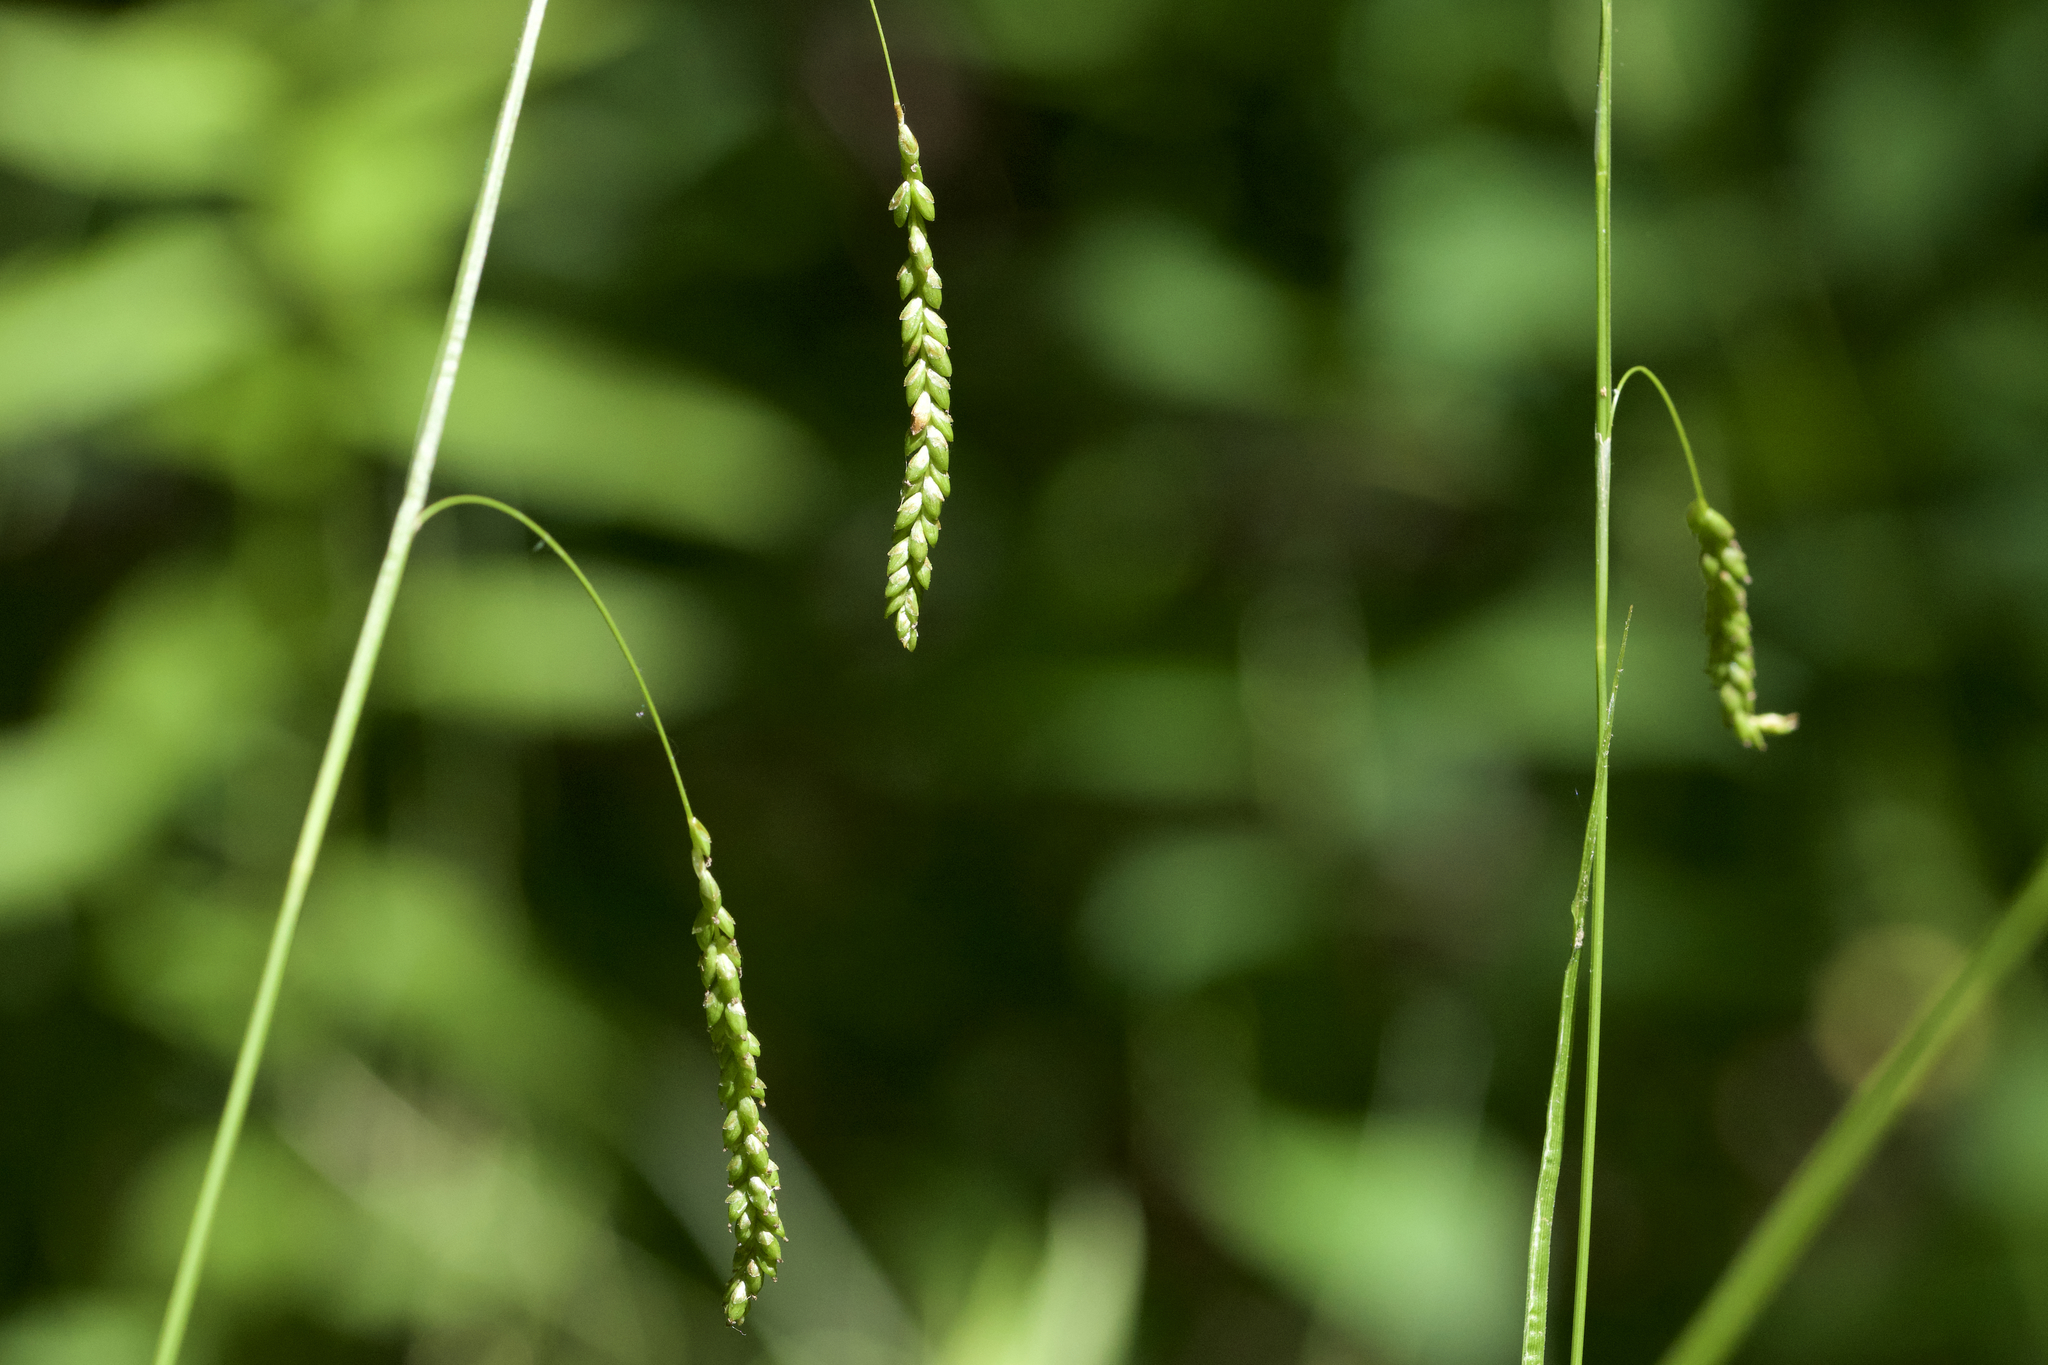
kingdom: Plantae
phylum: Tracheophyta
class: Liliopsida
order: Poales
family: Cyperaceae
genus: Carex
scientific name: Carex gracillima
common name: Graceful sedge
